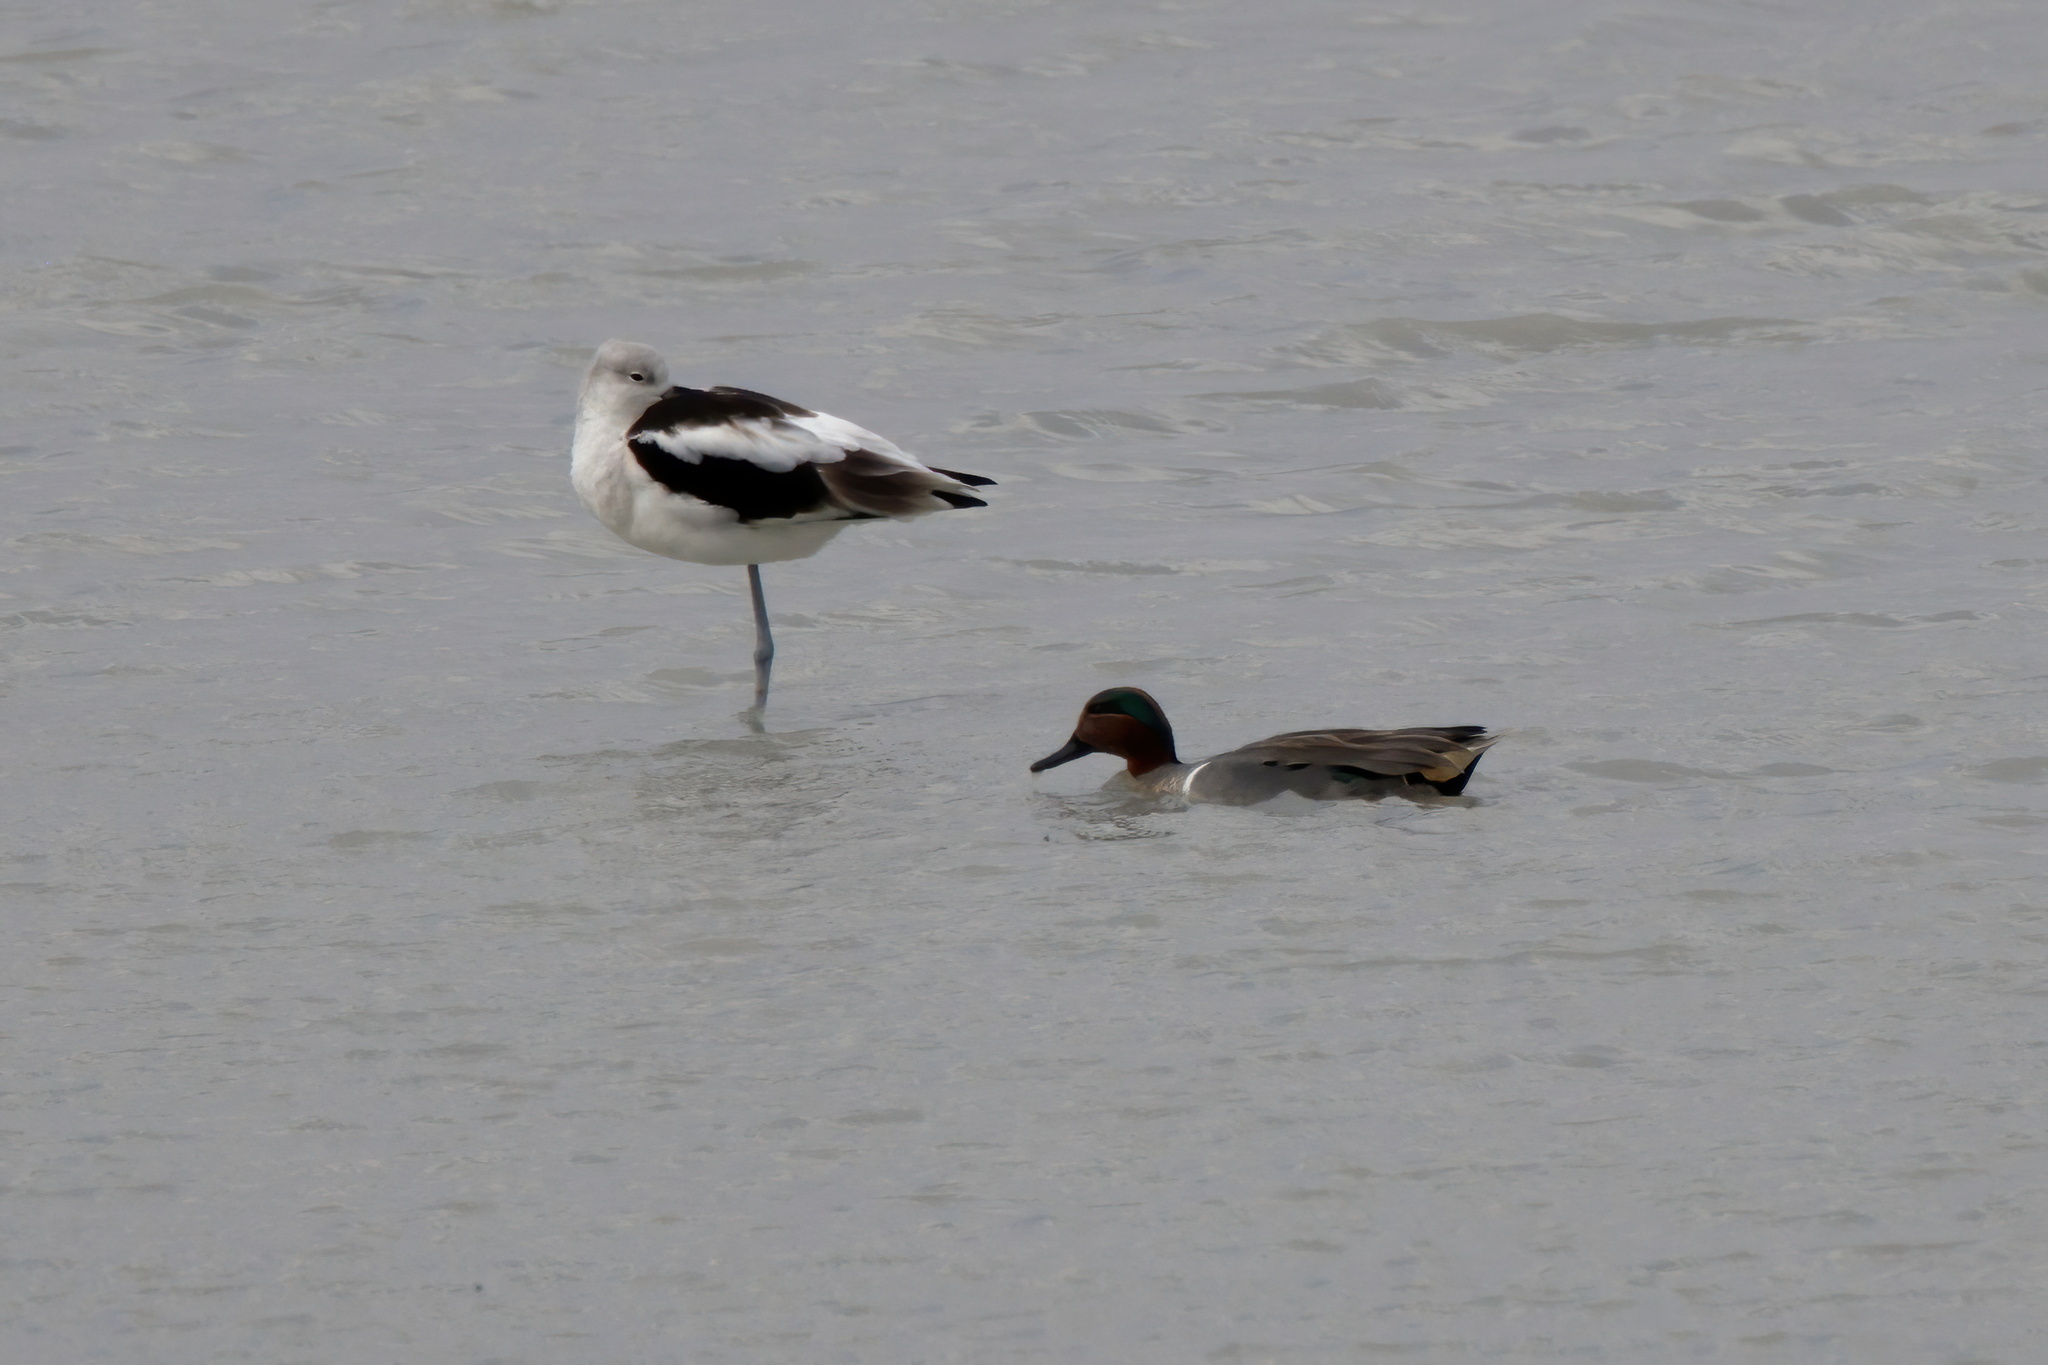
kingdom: Animalia
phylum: Chordata
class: Aves
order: Anseriformes
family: Anatidae
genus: Anas
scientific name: Anas crecca
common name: Eurasian teal
